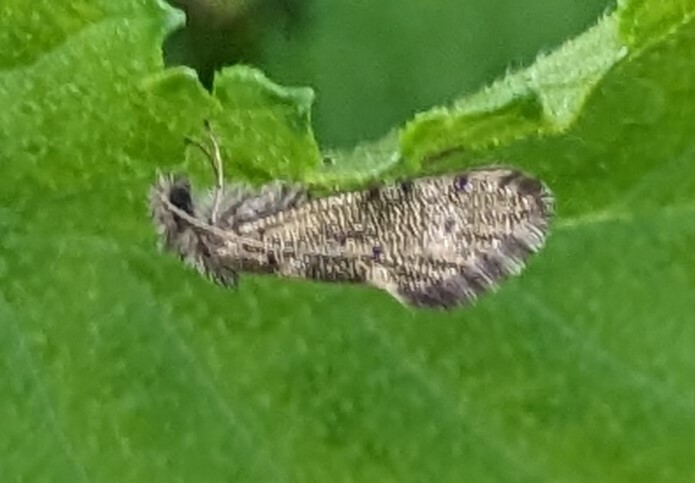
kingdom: Animalia
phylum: Arthropoda
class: Insecta
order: Lepidoptera
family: Eriocraniidae
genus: Dyseriocrania
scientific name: Dyseriocrania subpurpurella
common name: Common oak purple
